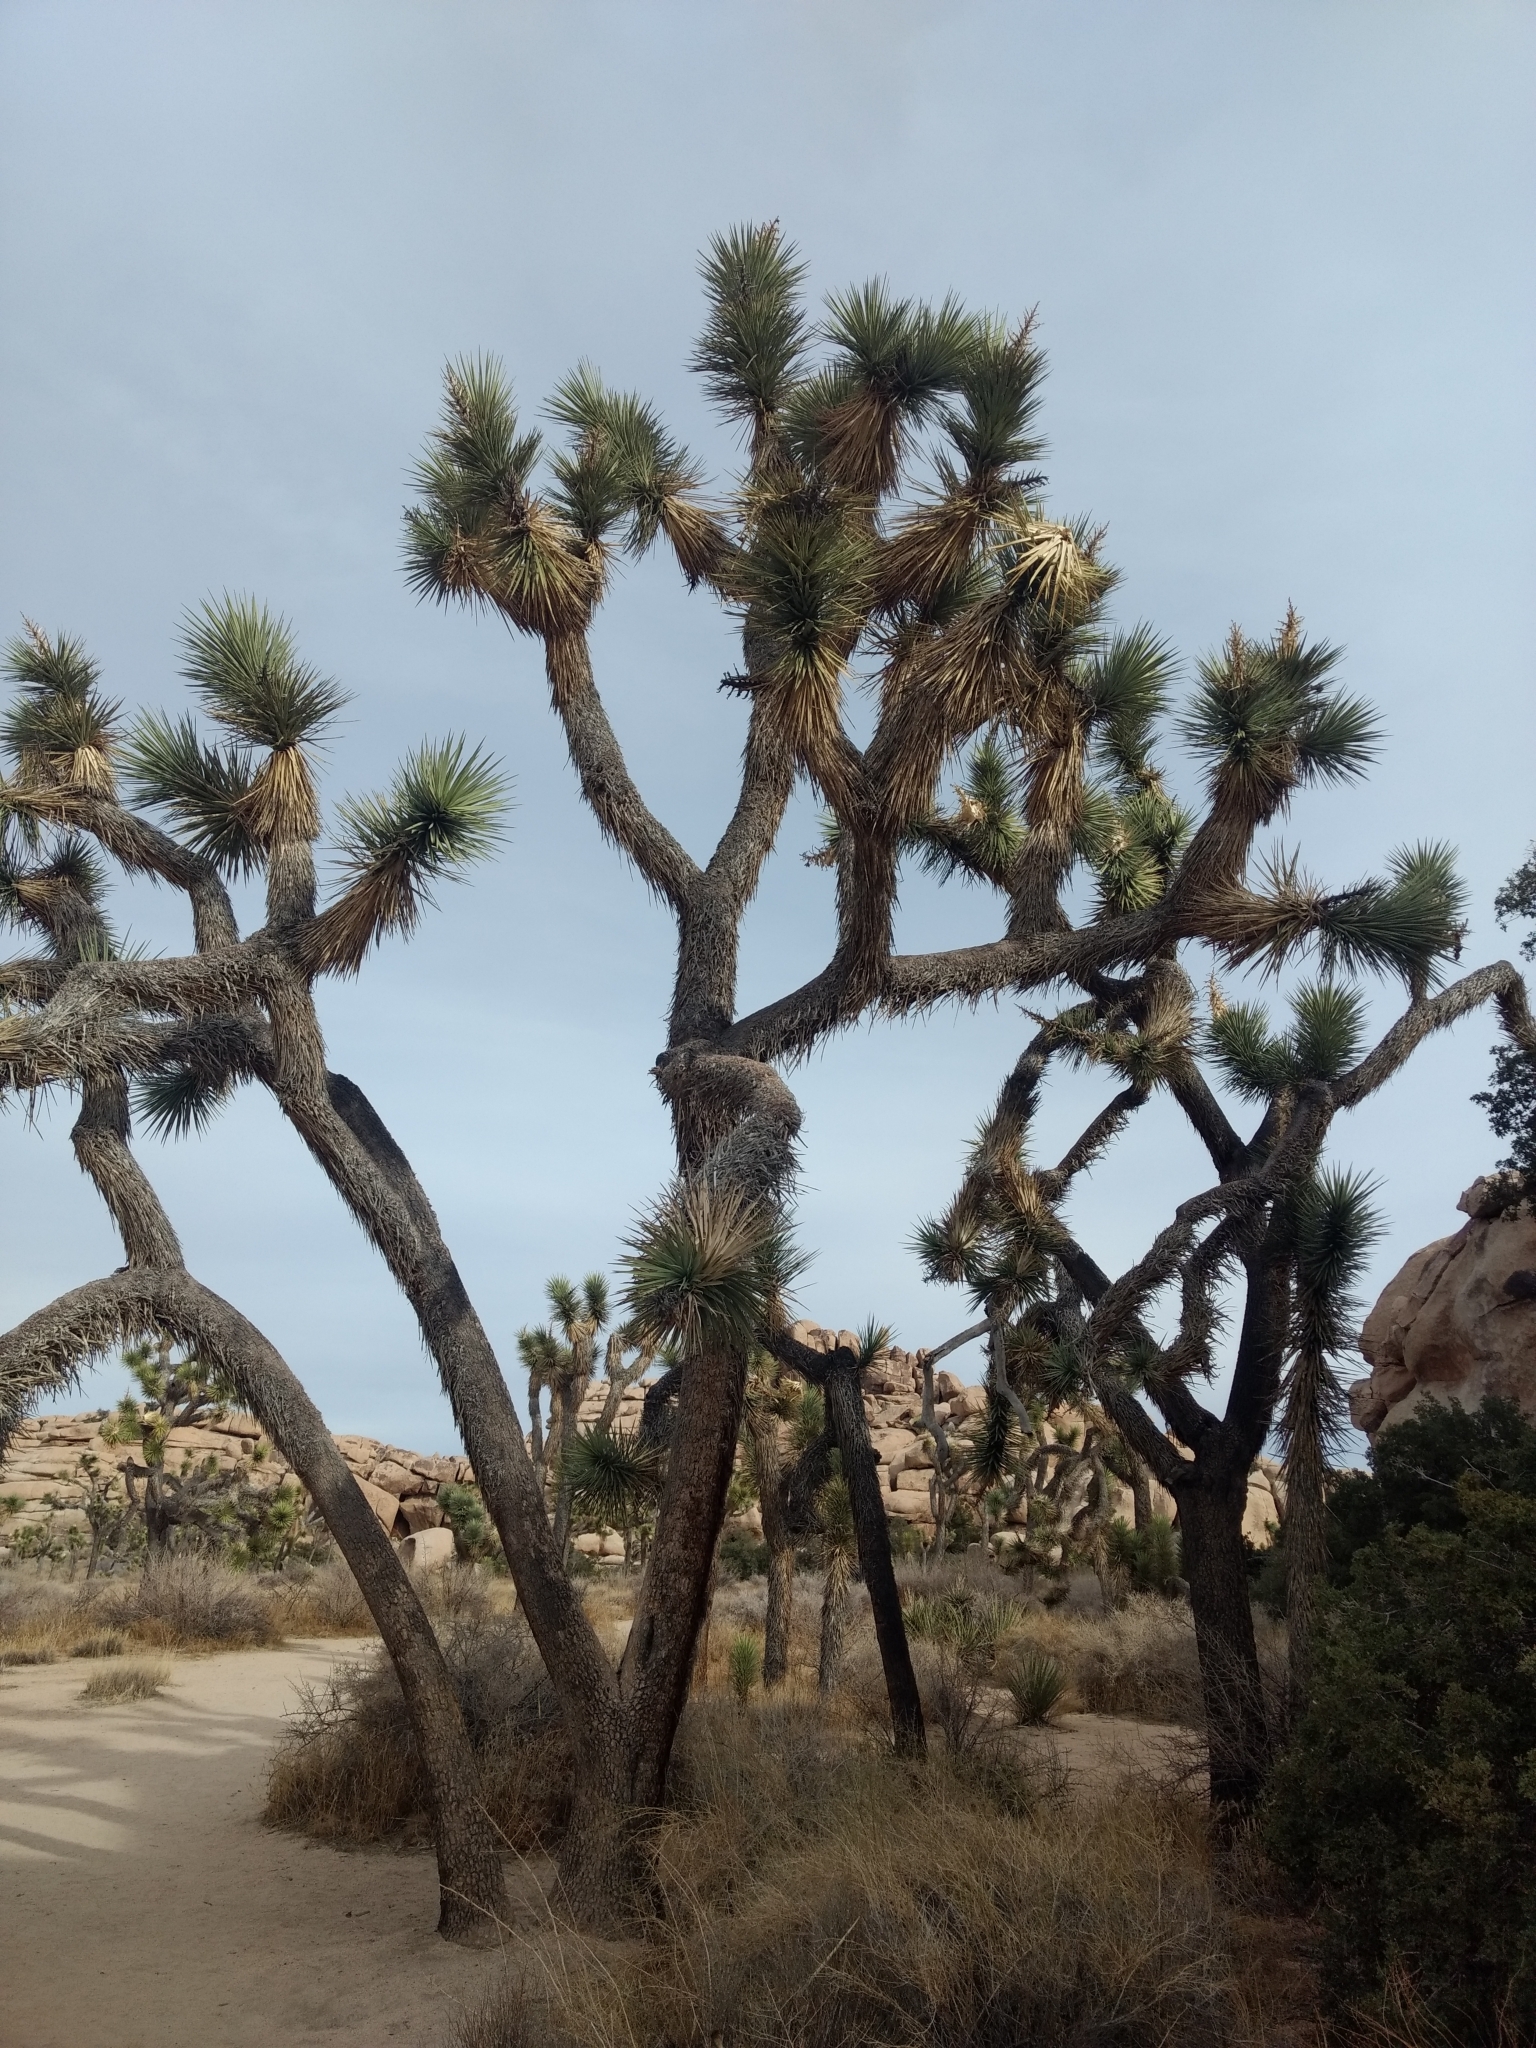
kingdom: Plantae
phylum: Tracheophyta
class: Liliopsida
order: Asparagales
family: Asparagaceae
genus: Yucca
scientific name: Yucca brevifolia
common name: Joshua tree
